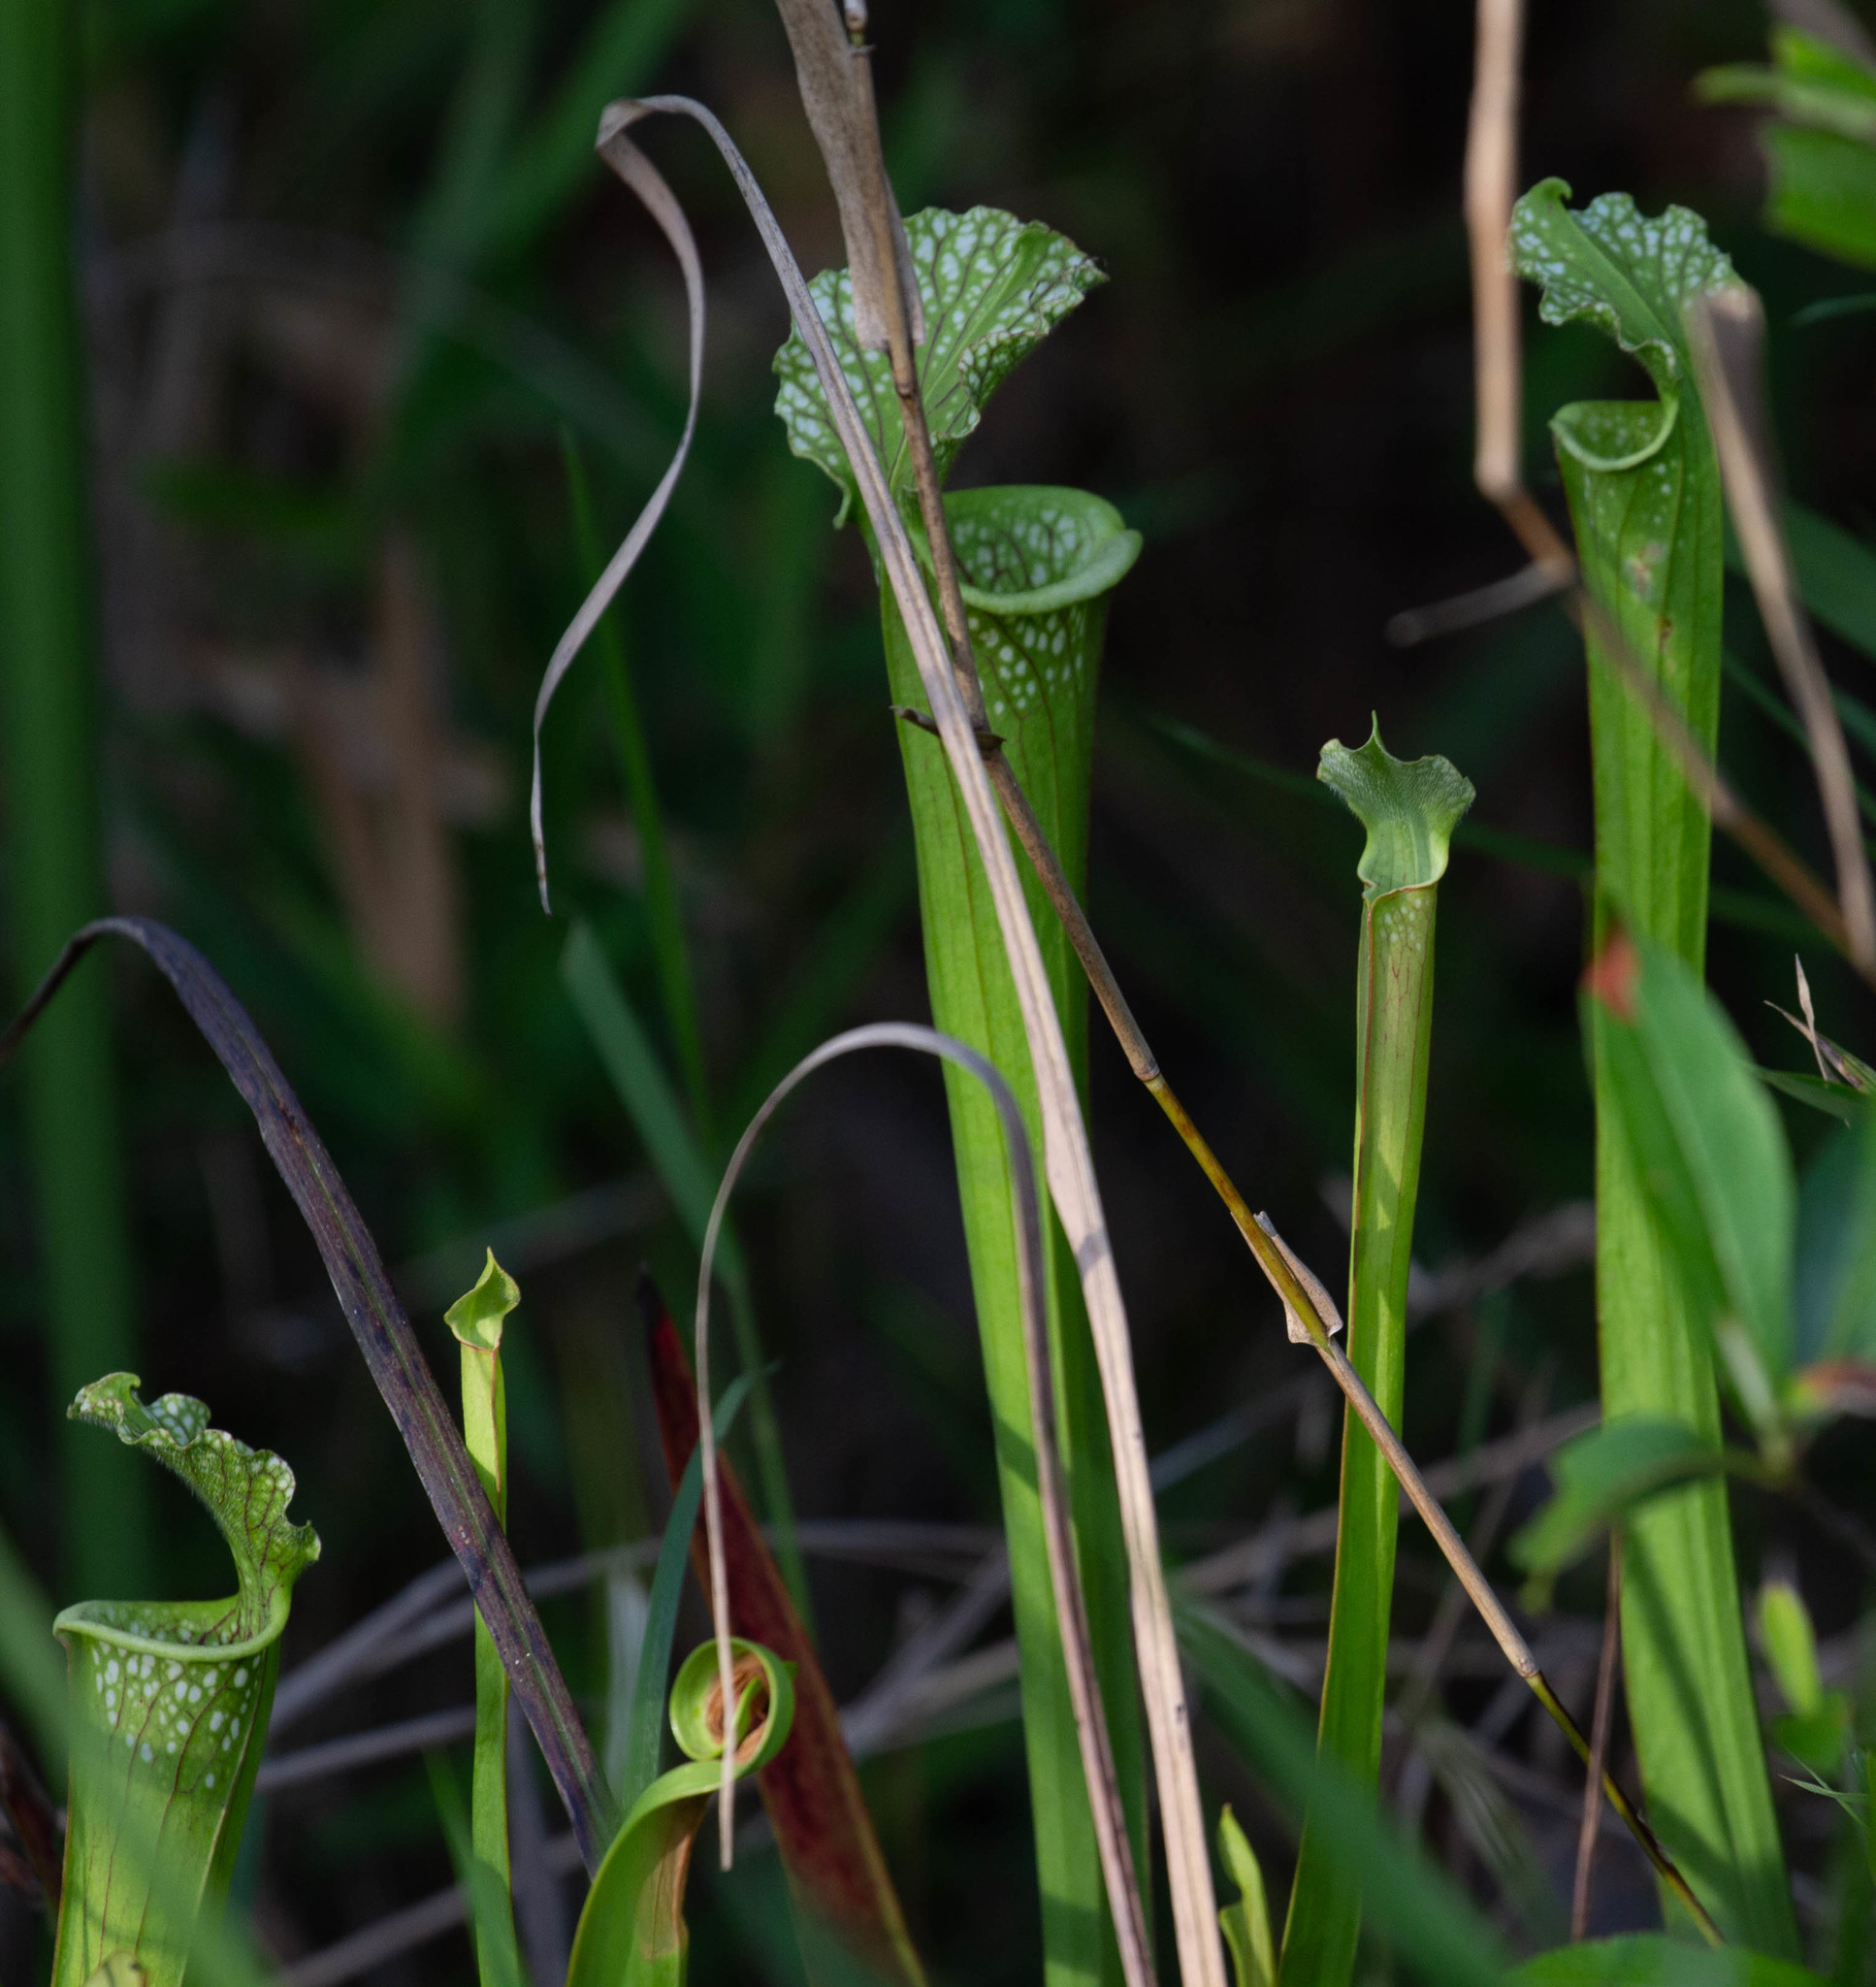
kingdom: Plantae
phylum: Tracheophyta
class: Magnoliopsida
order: Ericales
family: Sarraceniaceae
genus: Sarracenia
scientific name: Sarracenia leucophylla
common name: Purple trumpetleaf
